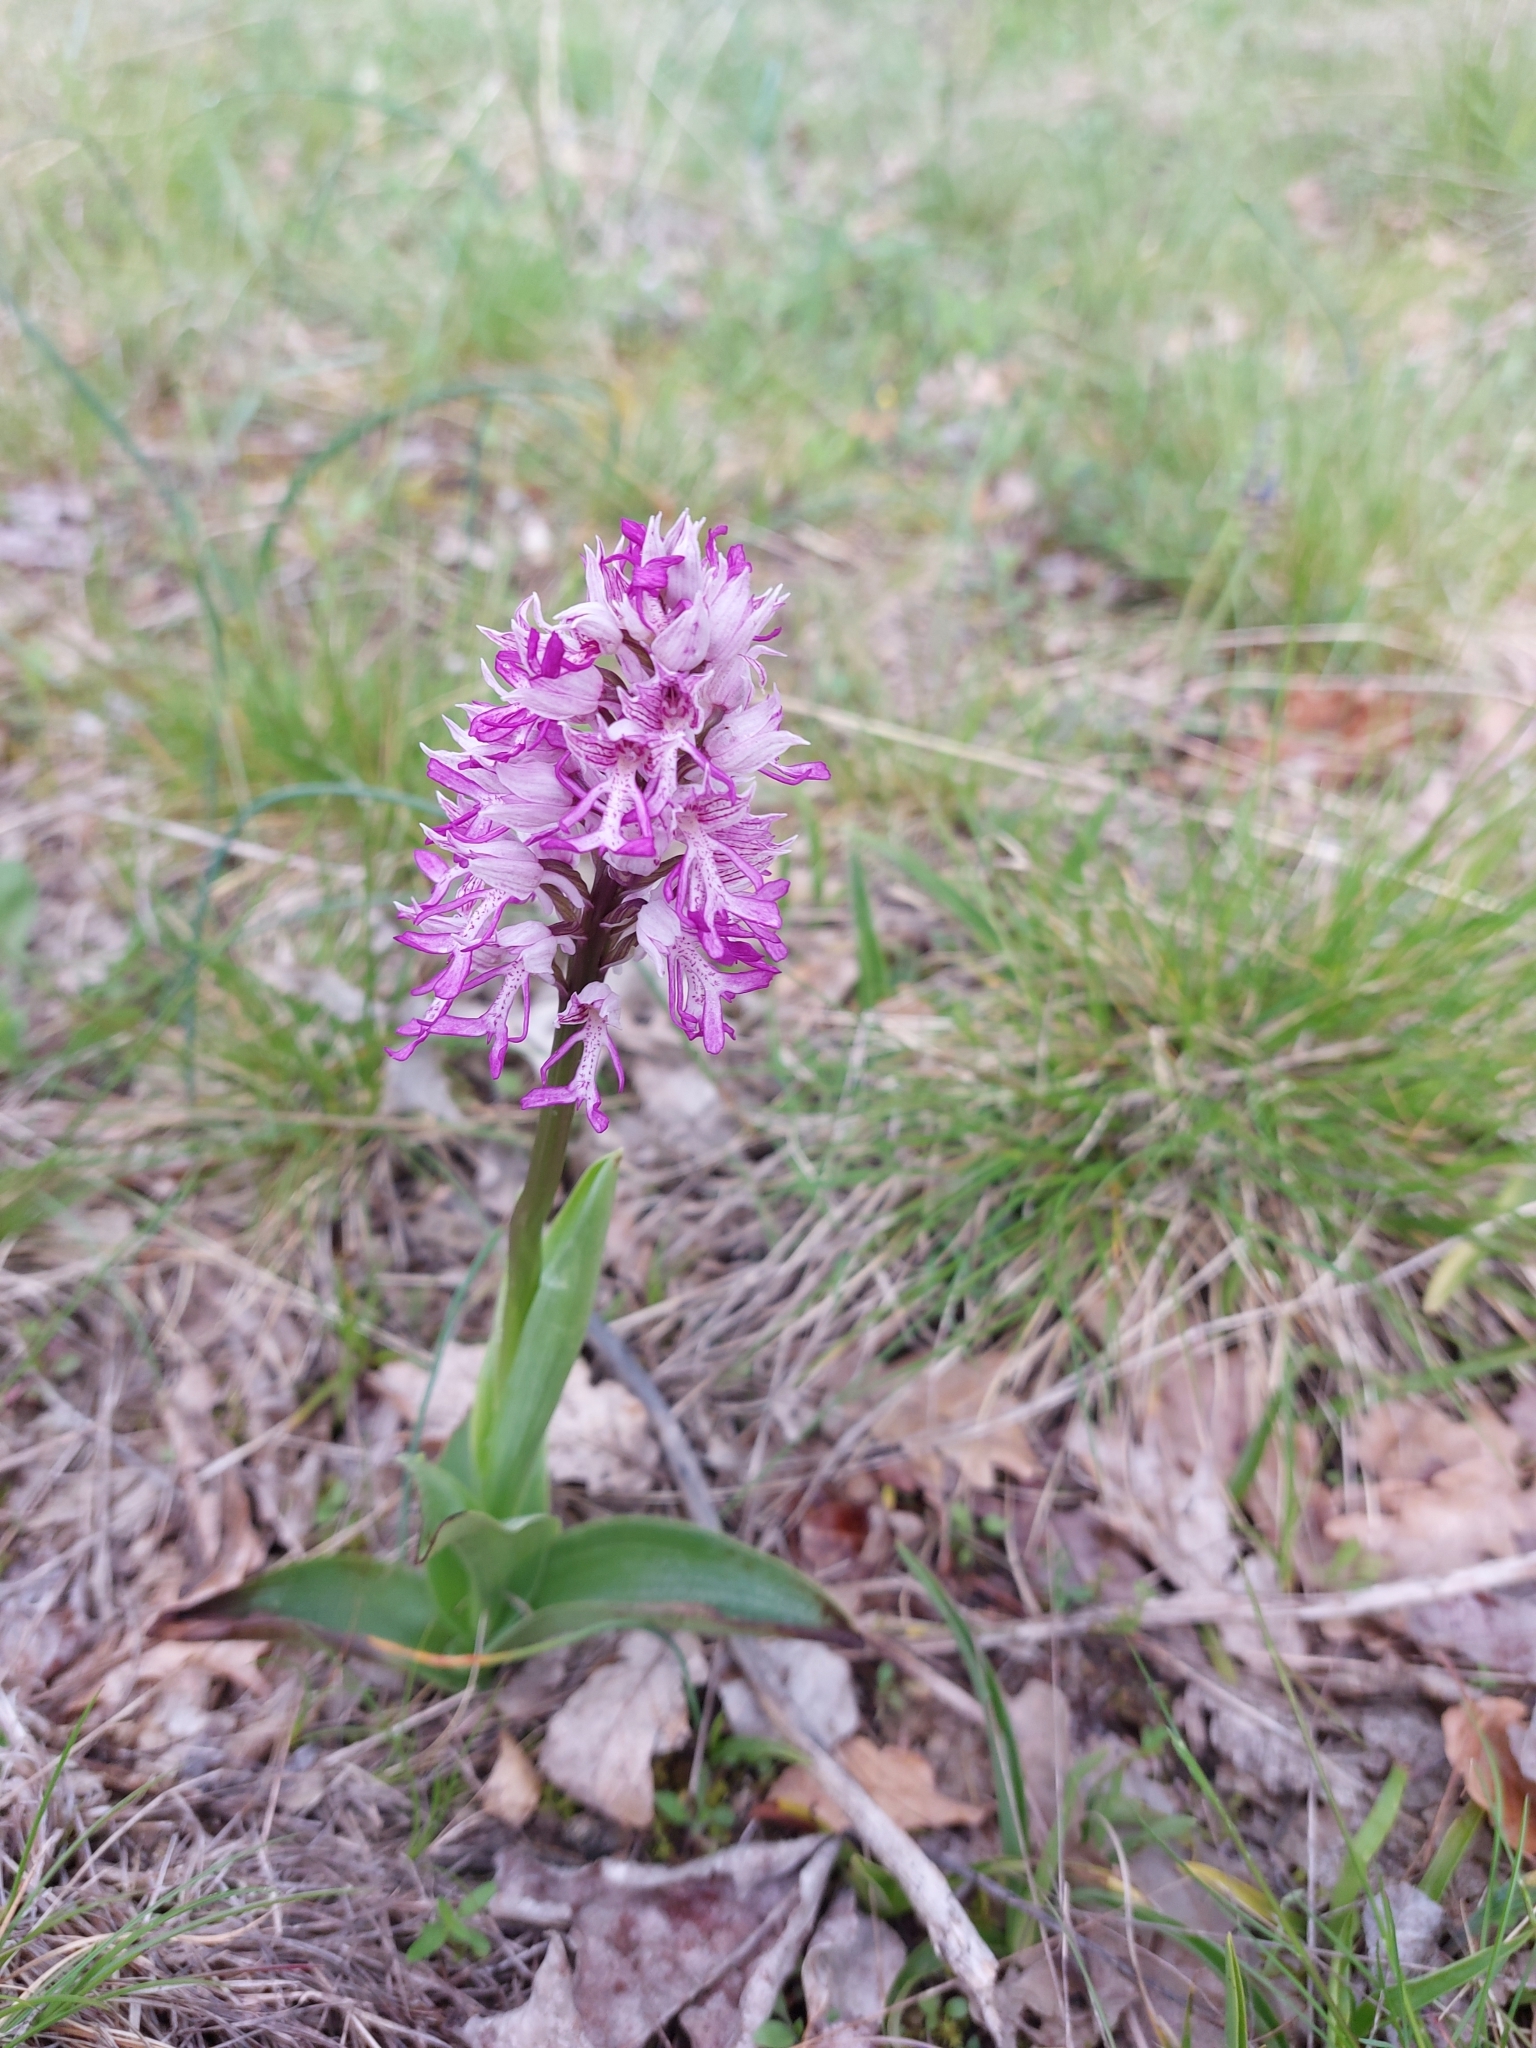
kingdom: Plantae
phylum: Tracheophyta
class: Liliopsida
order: Asparagales
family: Orchidaceae
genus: Orchis
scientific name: Orchis militaris
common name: Military orchid
